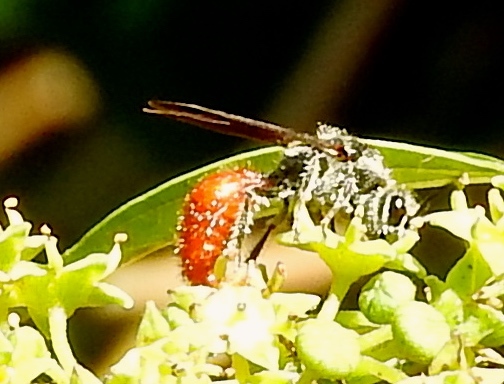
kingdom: Animalia
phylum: Arthropoda
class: Insecta
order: Hymenoptera
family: Mutillidae
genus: Timulla
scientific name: Timulla
